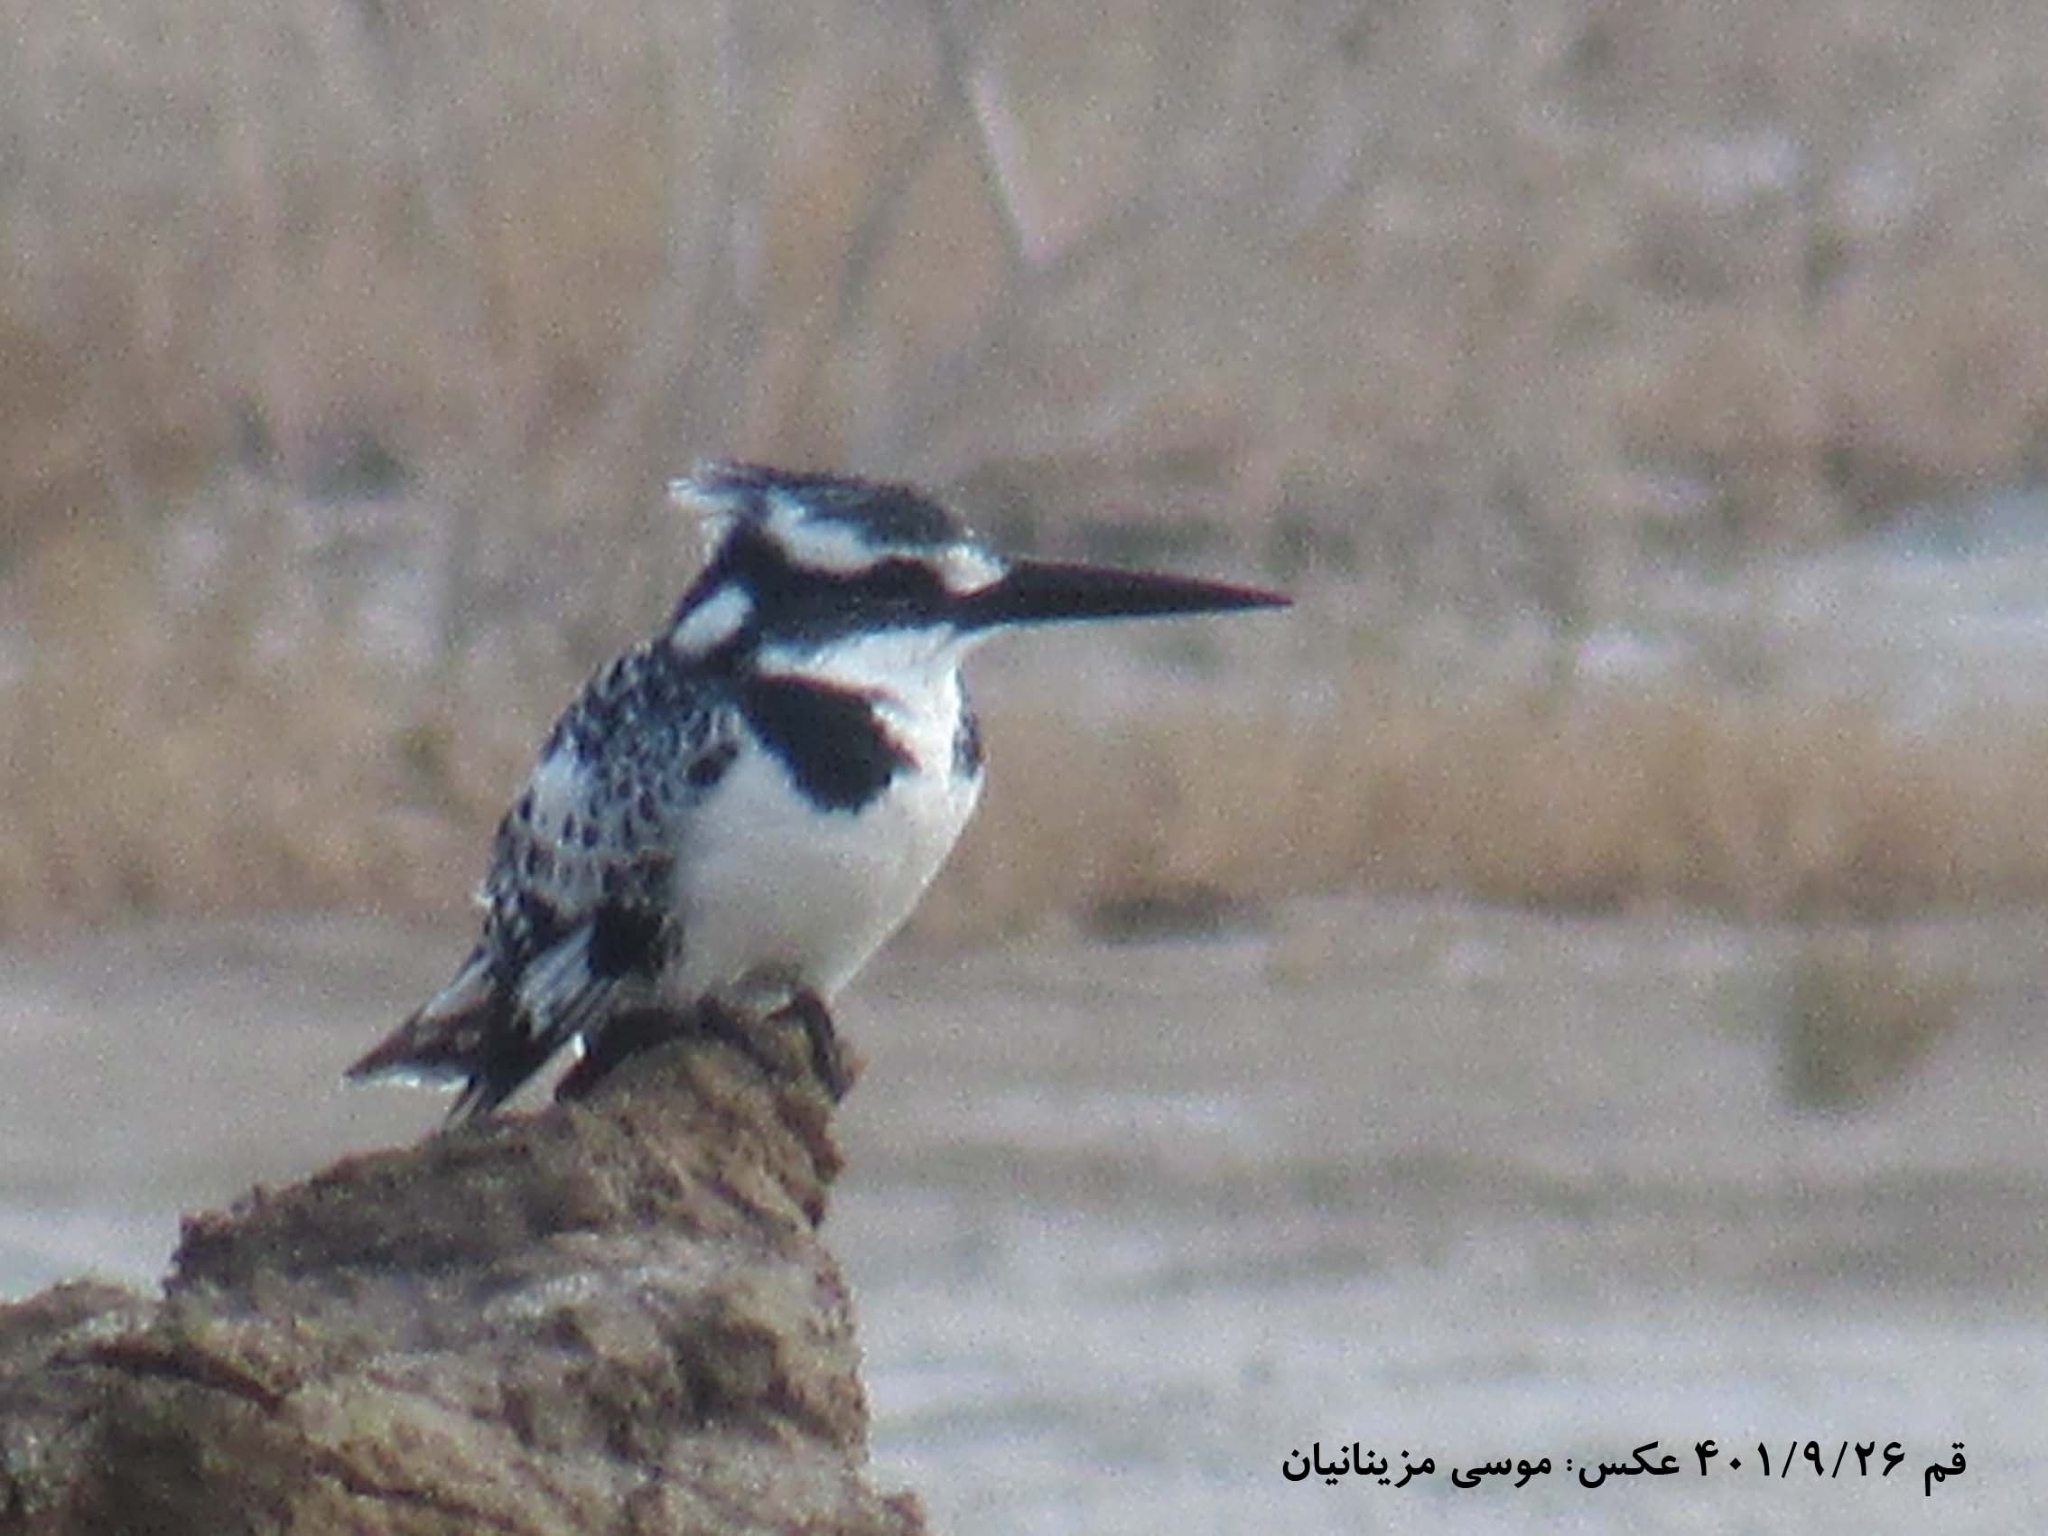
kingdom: Animalia
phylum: Chordata
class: Aves
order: Coraciiformes
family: Alcedinidae
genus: Ceryle
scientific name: Ceryle rudis
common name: Pied kingfisher
